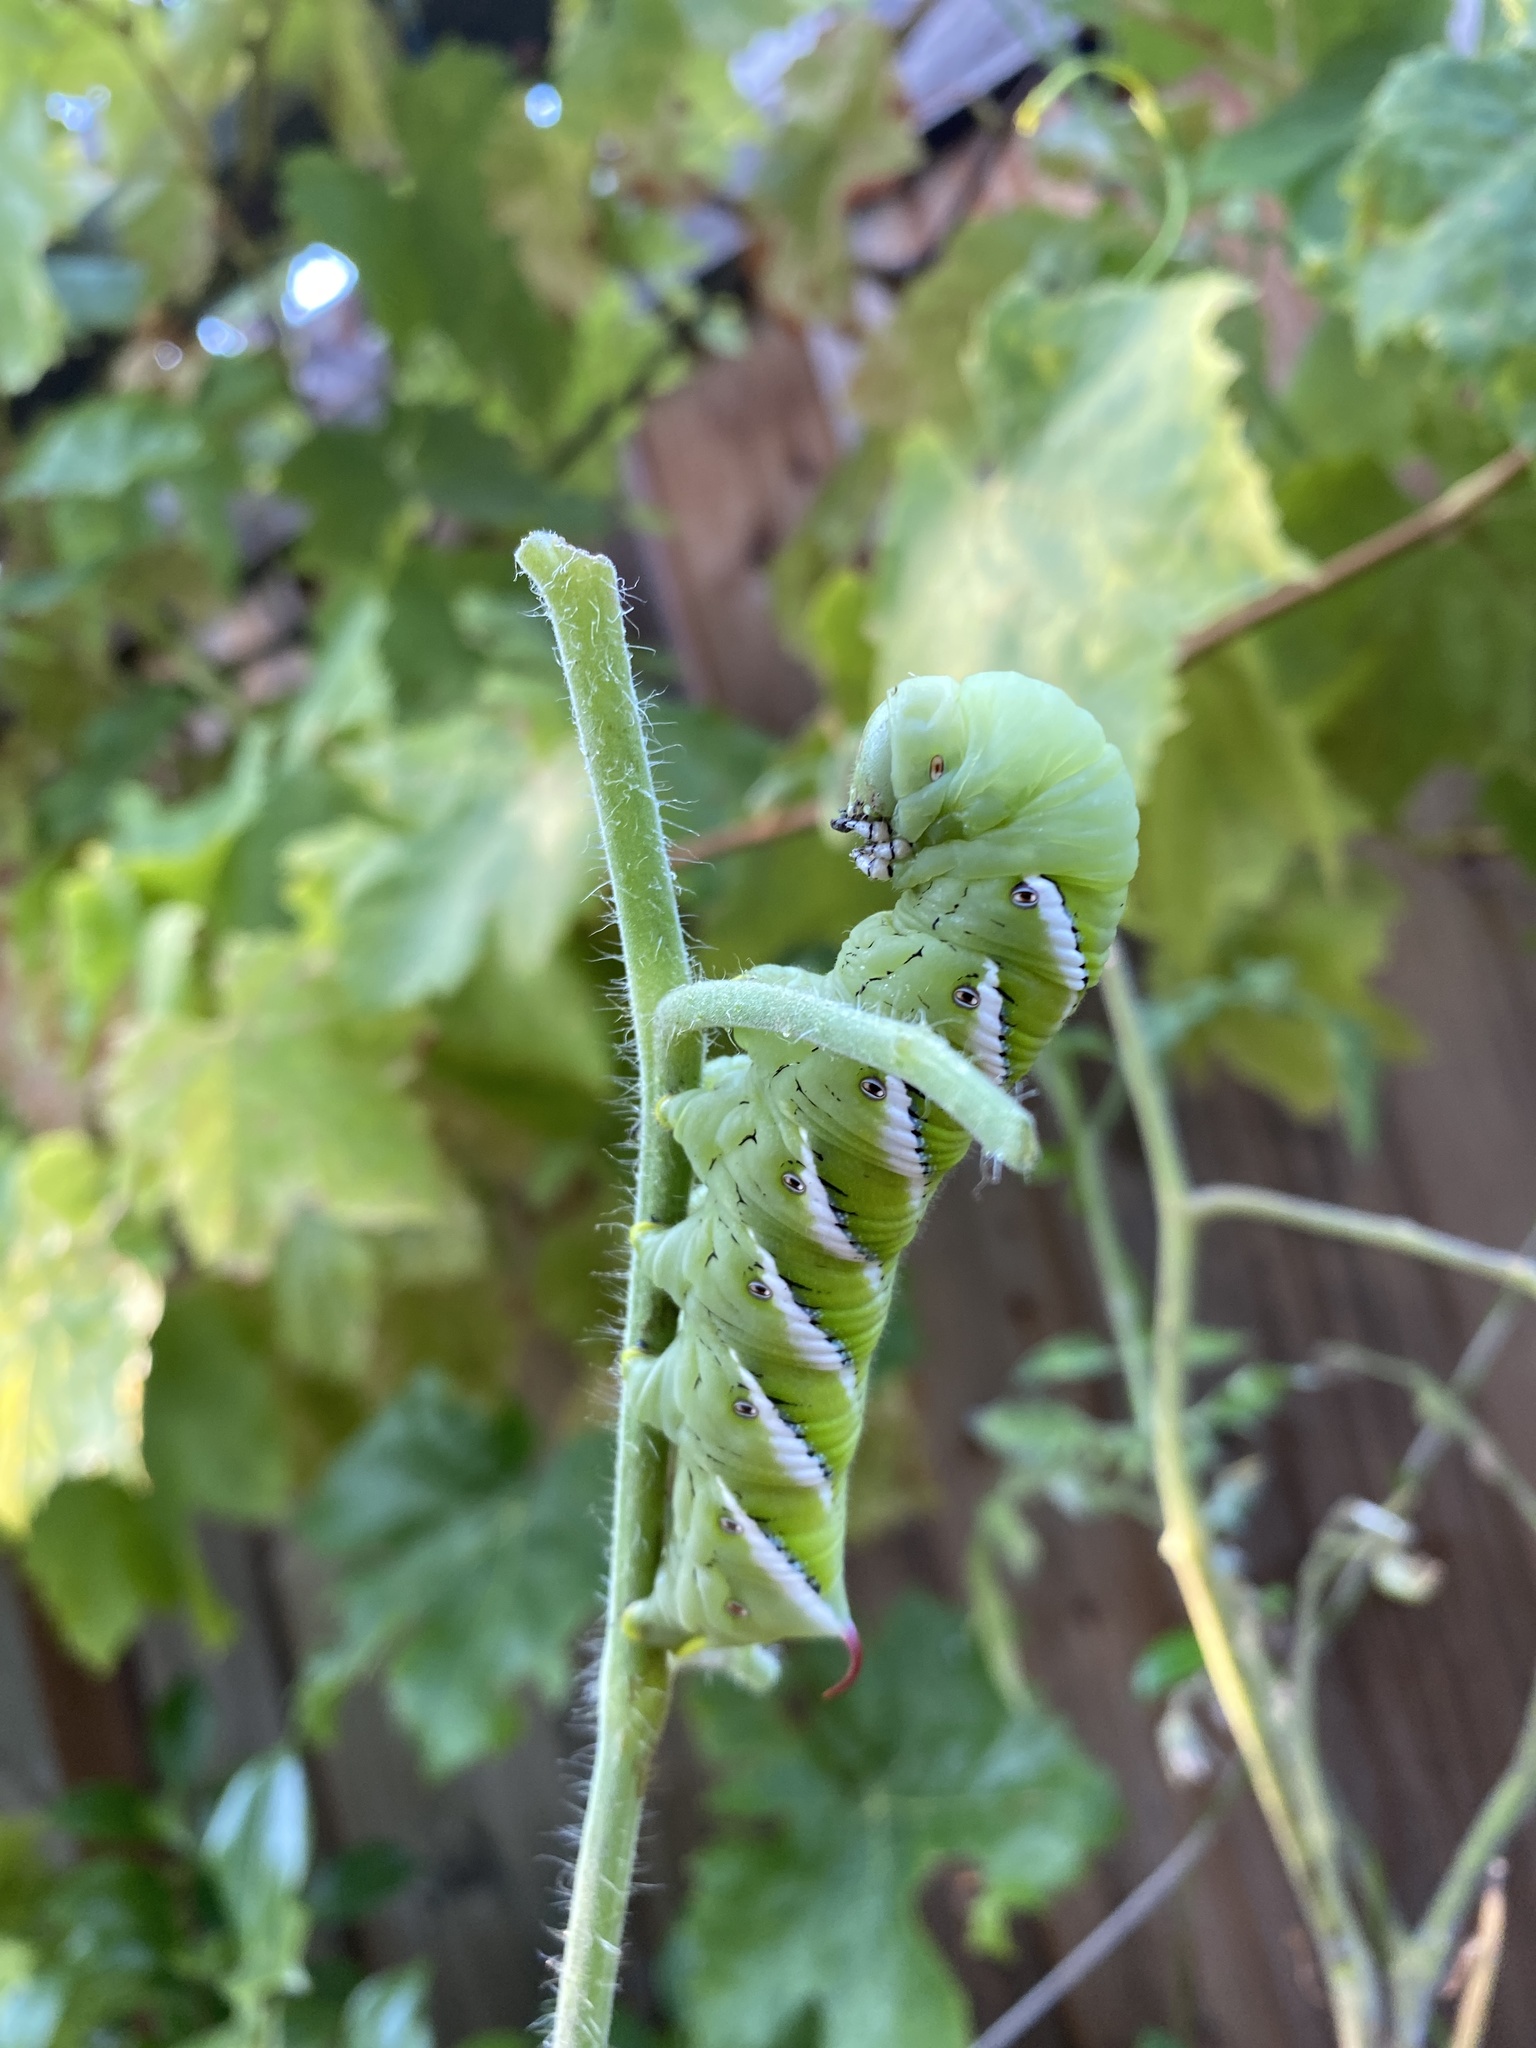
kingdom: Animalia
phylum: Arthropoda
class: Insecta
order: Lepidoptera
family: Sphingidae
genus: Manduca
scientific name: Manduca sexta
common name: Carolina sphinx
